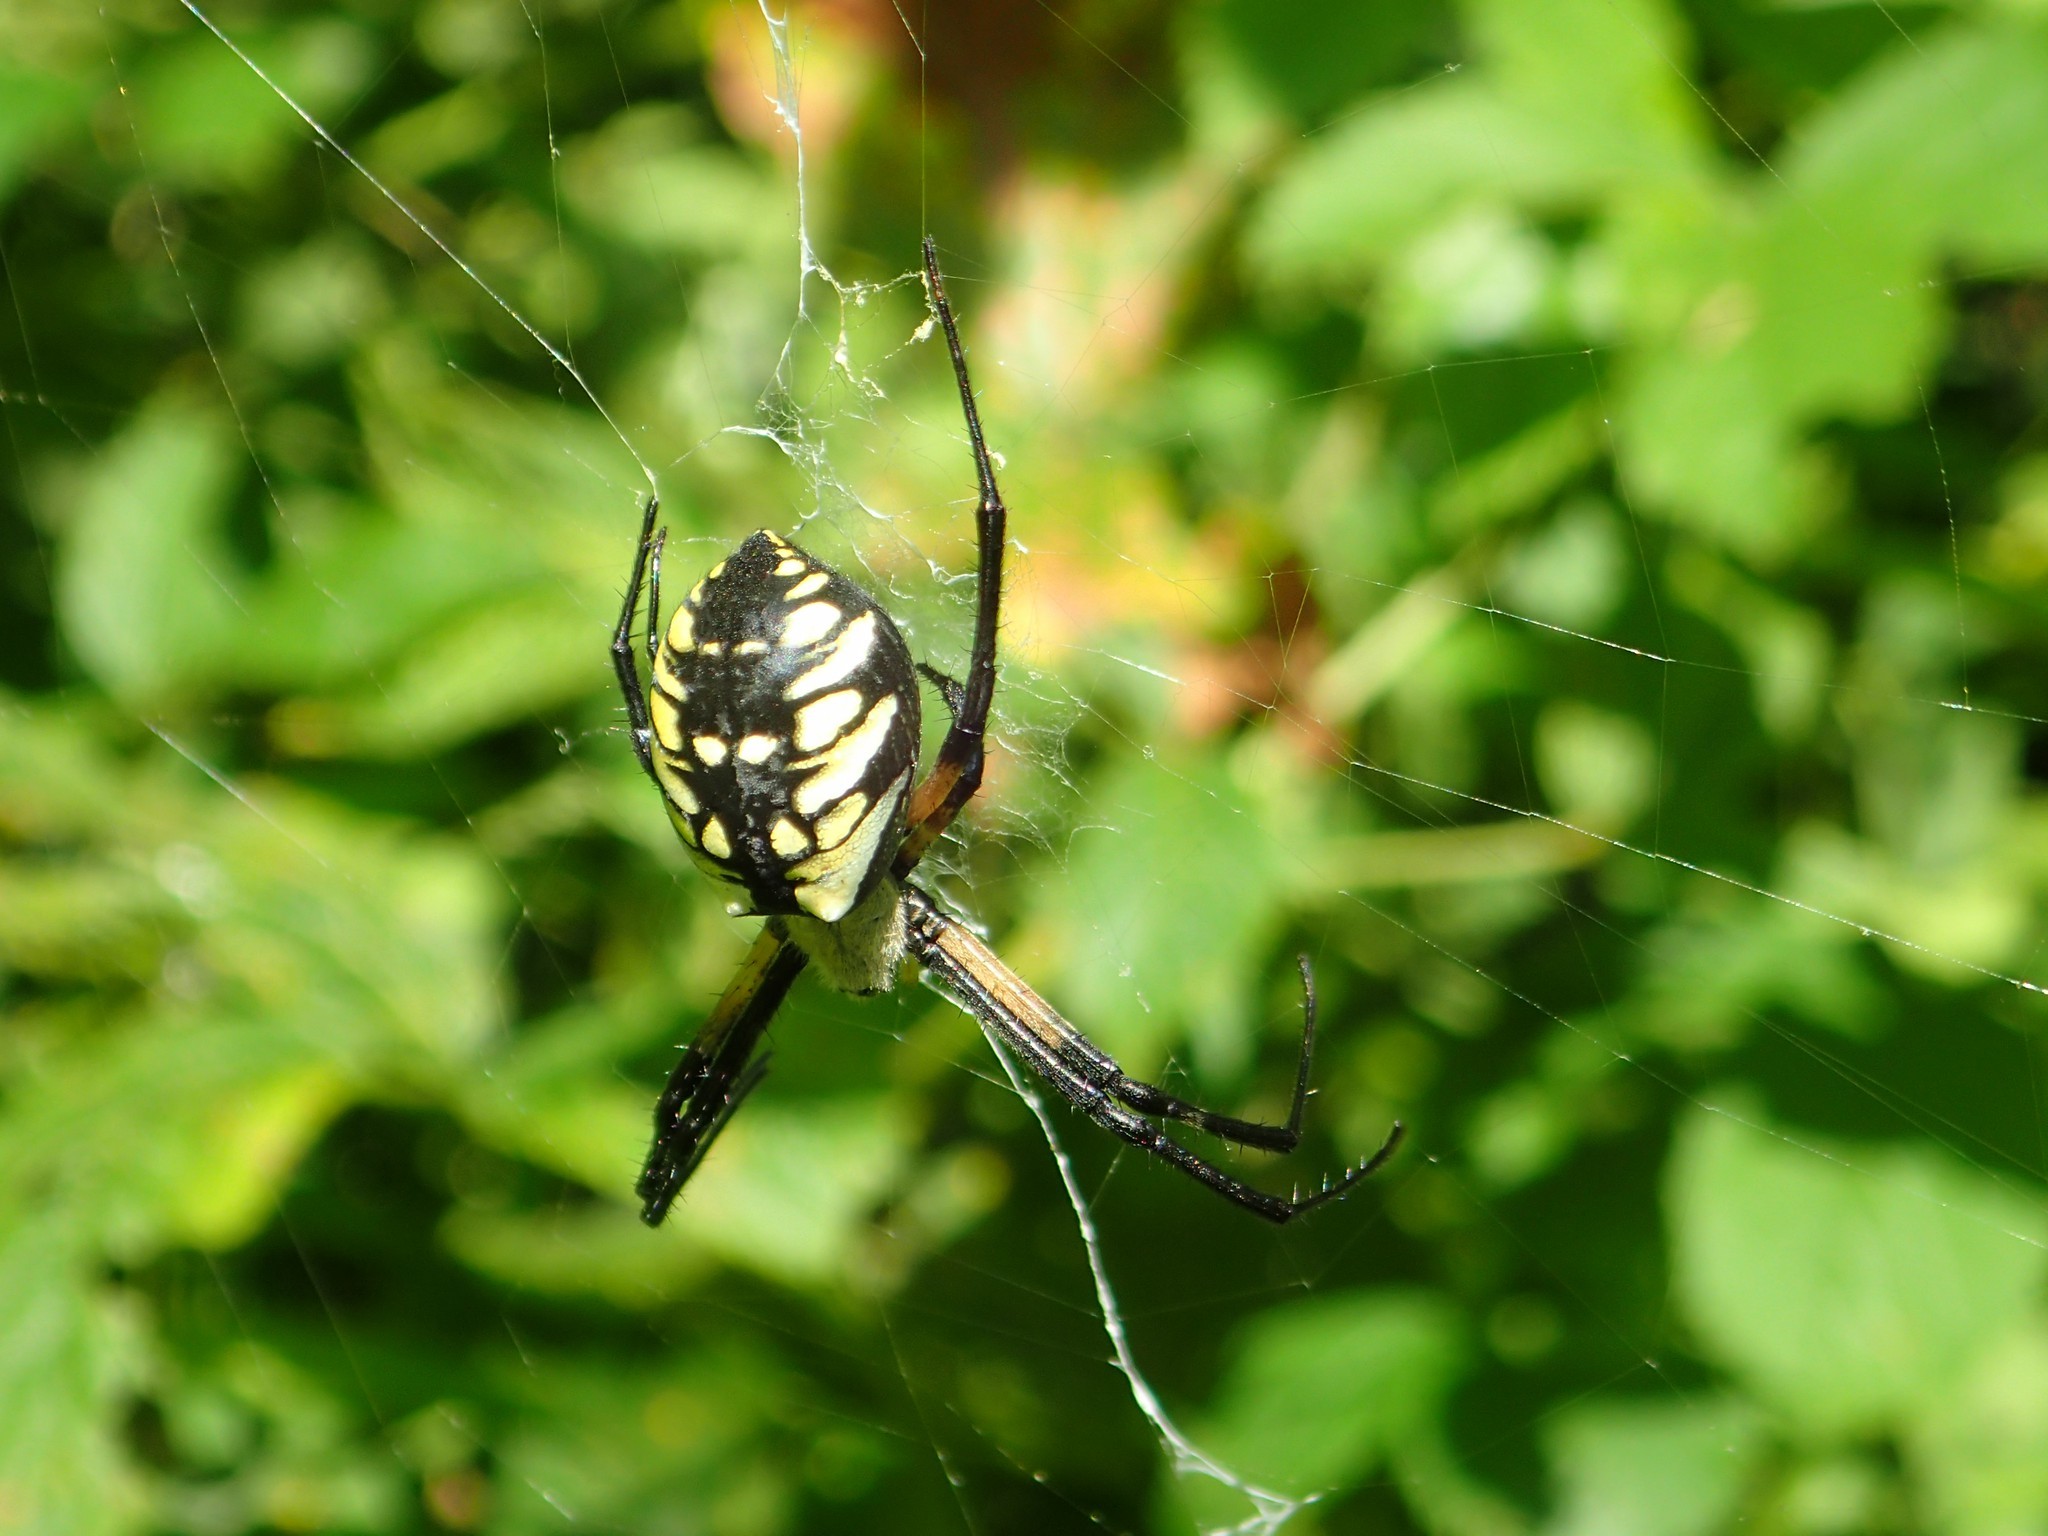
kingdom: Animalia
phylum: Arthropoda
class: Arachnida
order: Araneae
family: Araneidae
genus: Argiope
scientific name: Argiope aurantia
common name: Orb weavers
